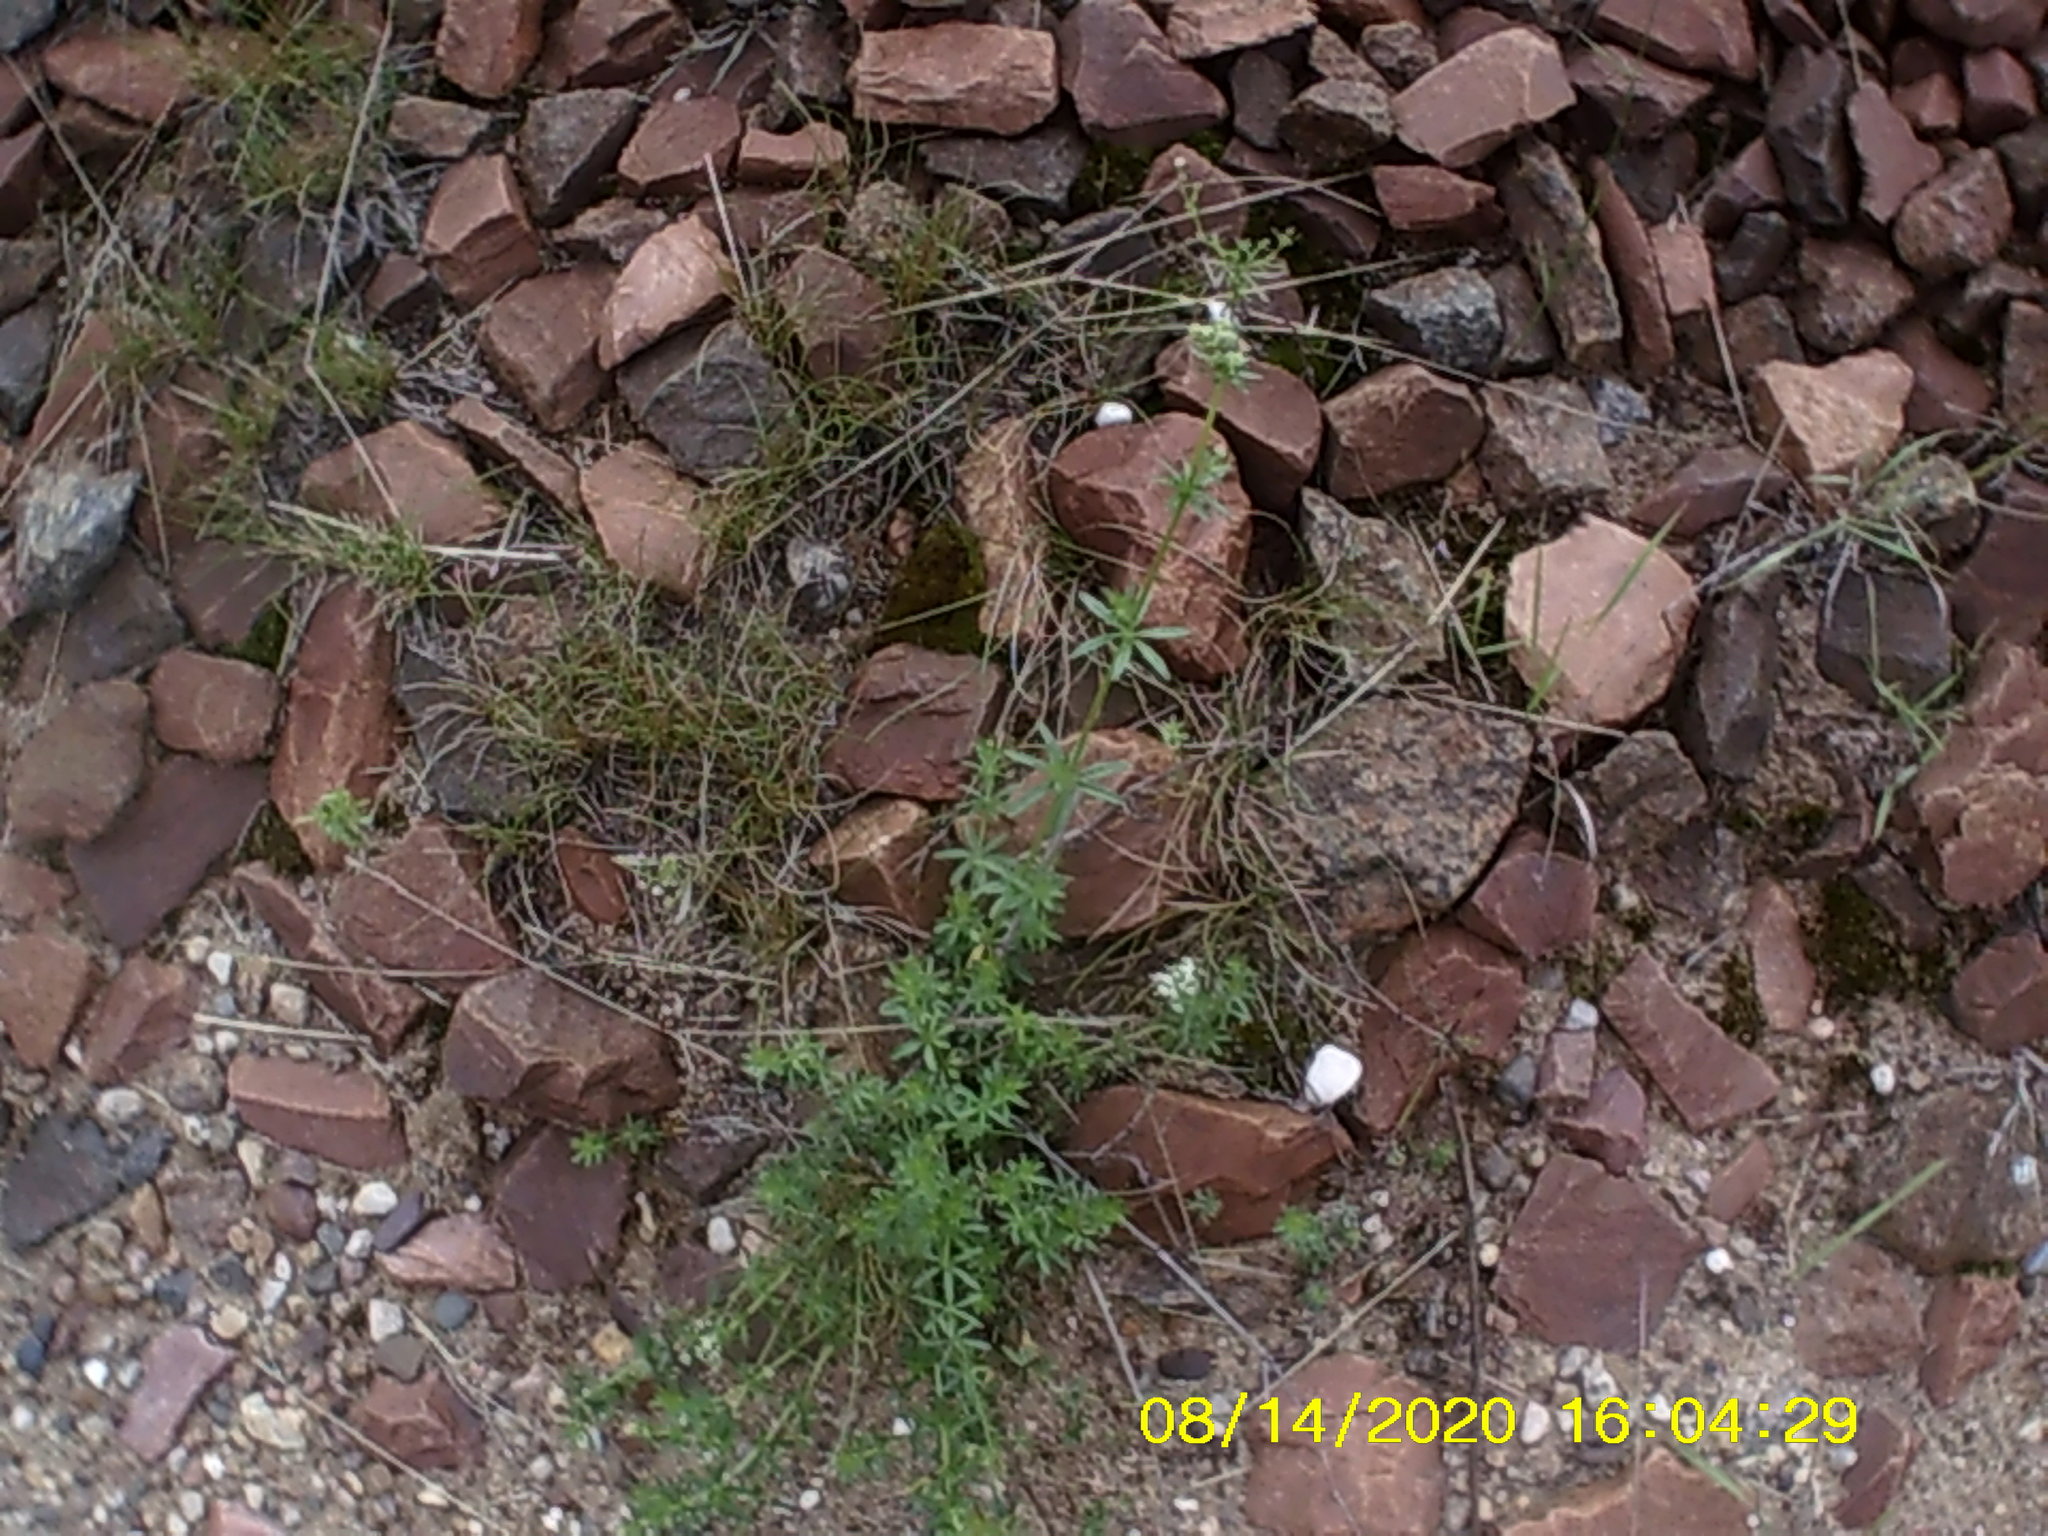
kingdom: Plantae
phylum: Tracheophyta
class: Magnoliopsida
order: Gentianales
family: Rubiaceae
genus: Galium
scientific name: Galium mollugo
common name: Hedge bedstraw
